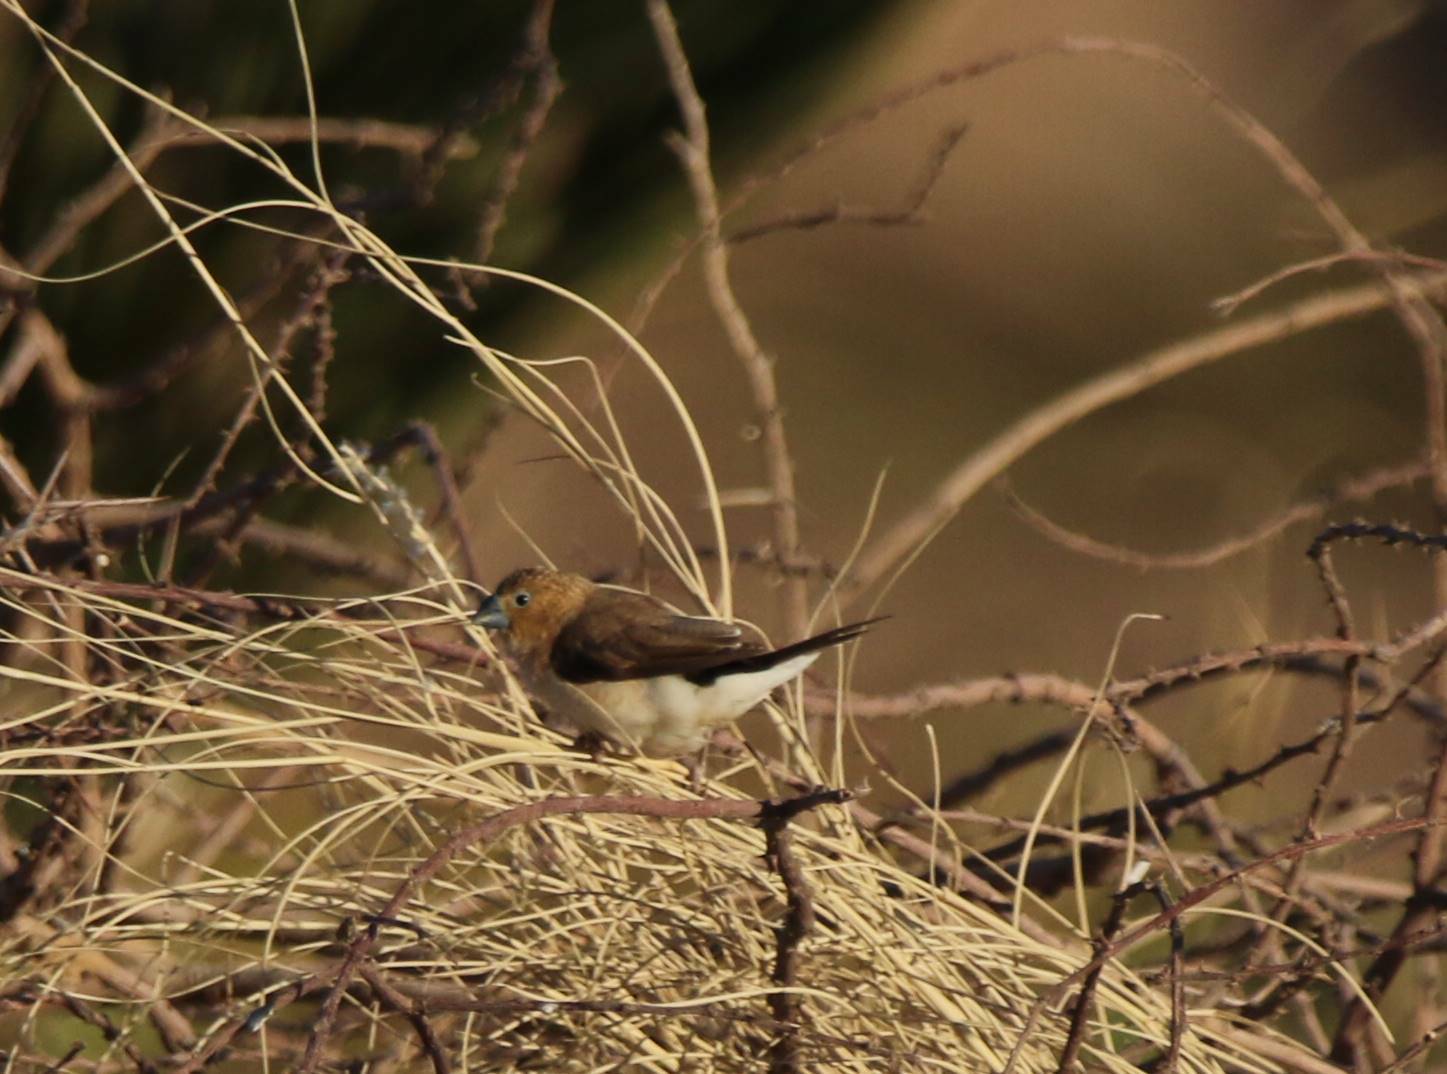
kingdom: Animalia
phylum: Chordata
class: Aves
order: Passeriformes
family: Estrildidae
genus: Euodice
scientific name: Euodice cantans
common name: African silverbill
